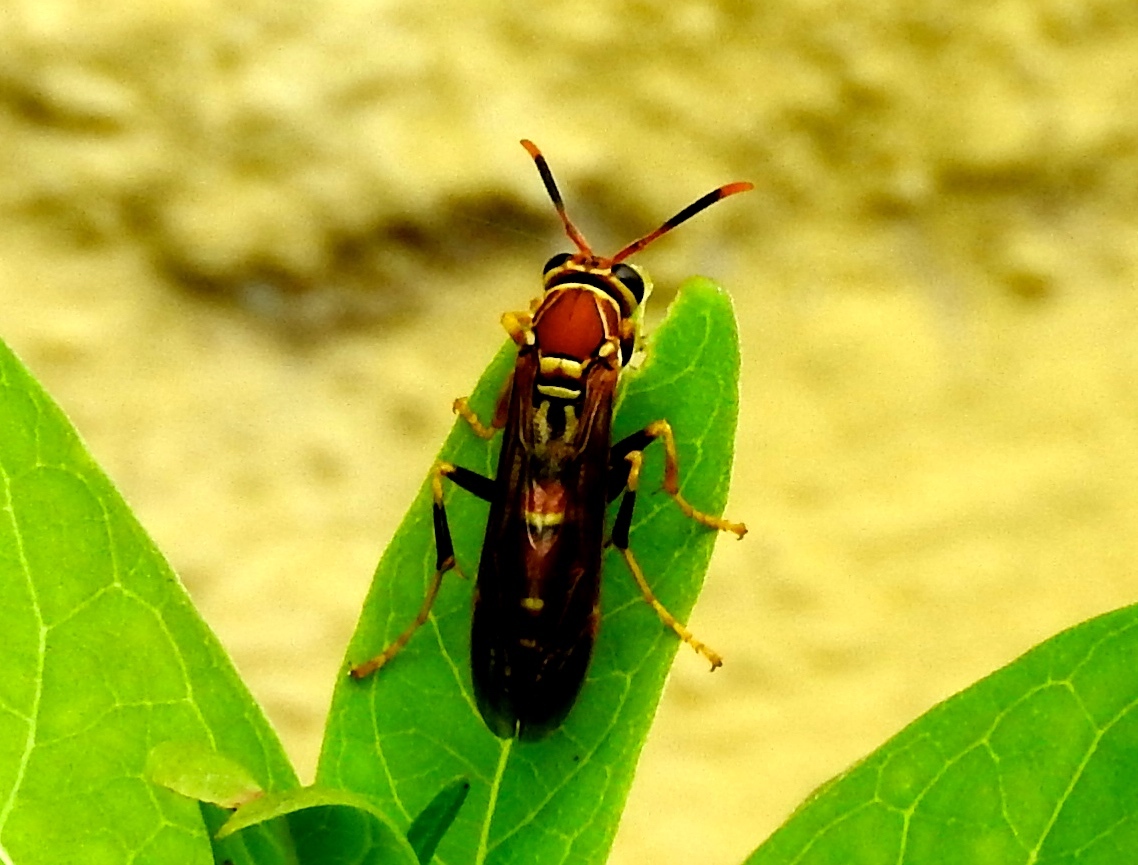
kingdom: Animalia
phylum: Arthropoda
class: Insecta
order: Hymenoptera
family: Eumenidae
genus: Polistes
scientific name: Polistes instabilis
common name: Unstable paper wasp
